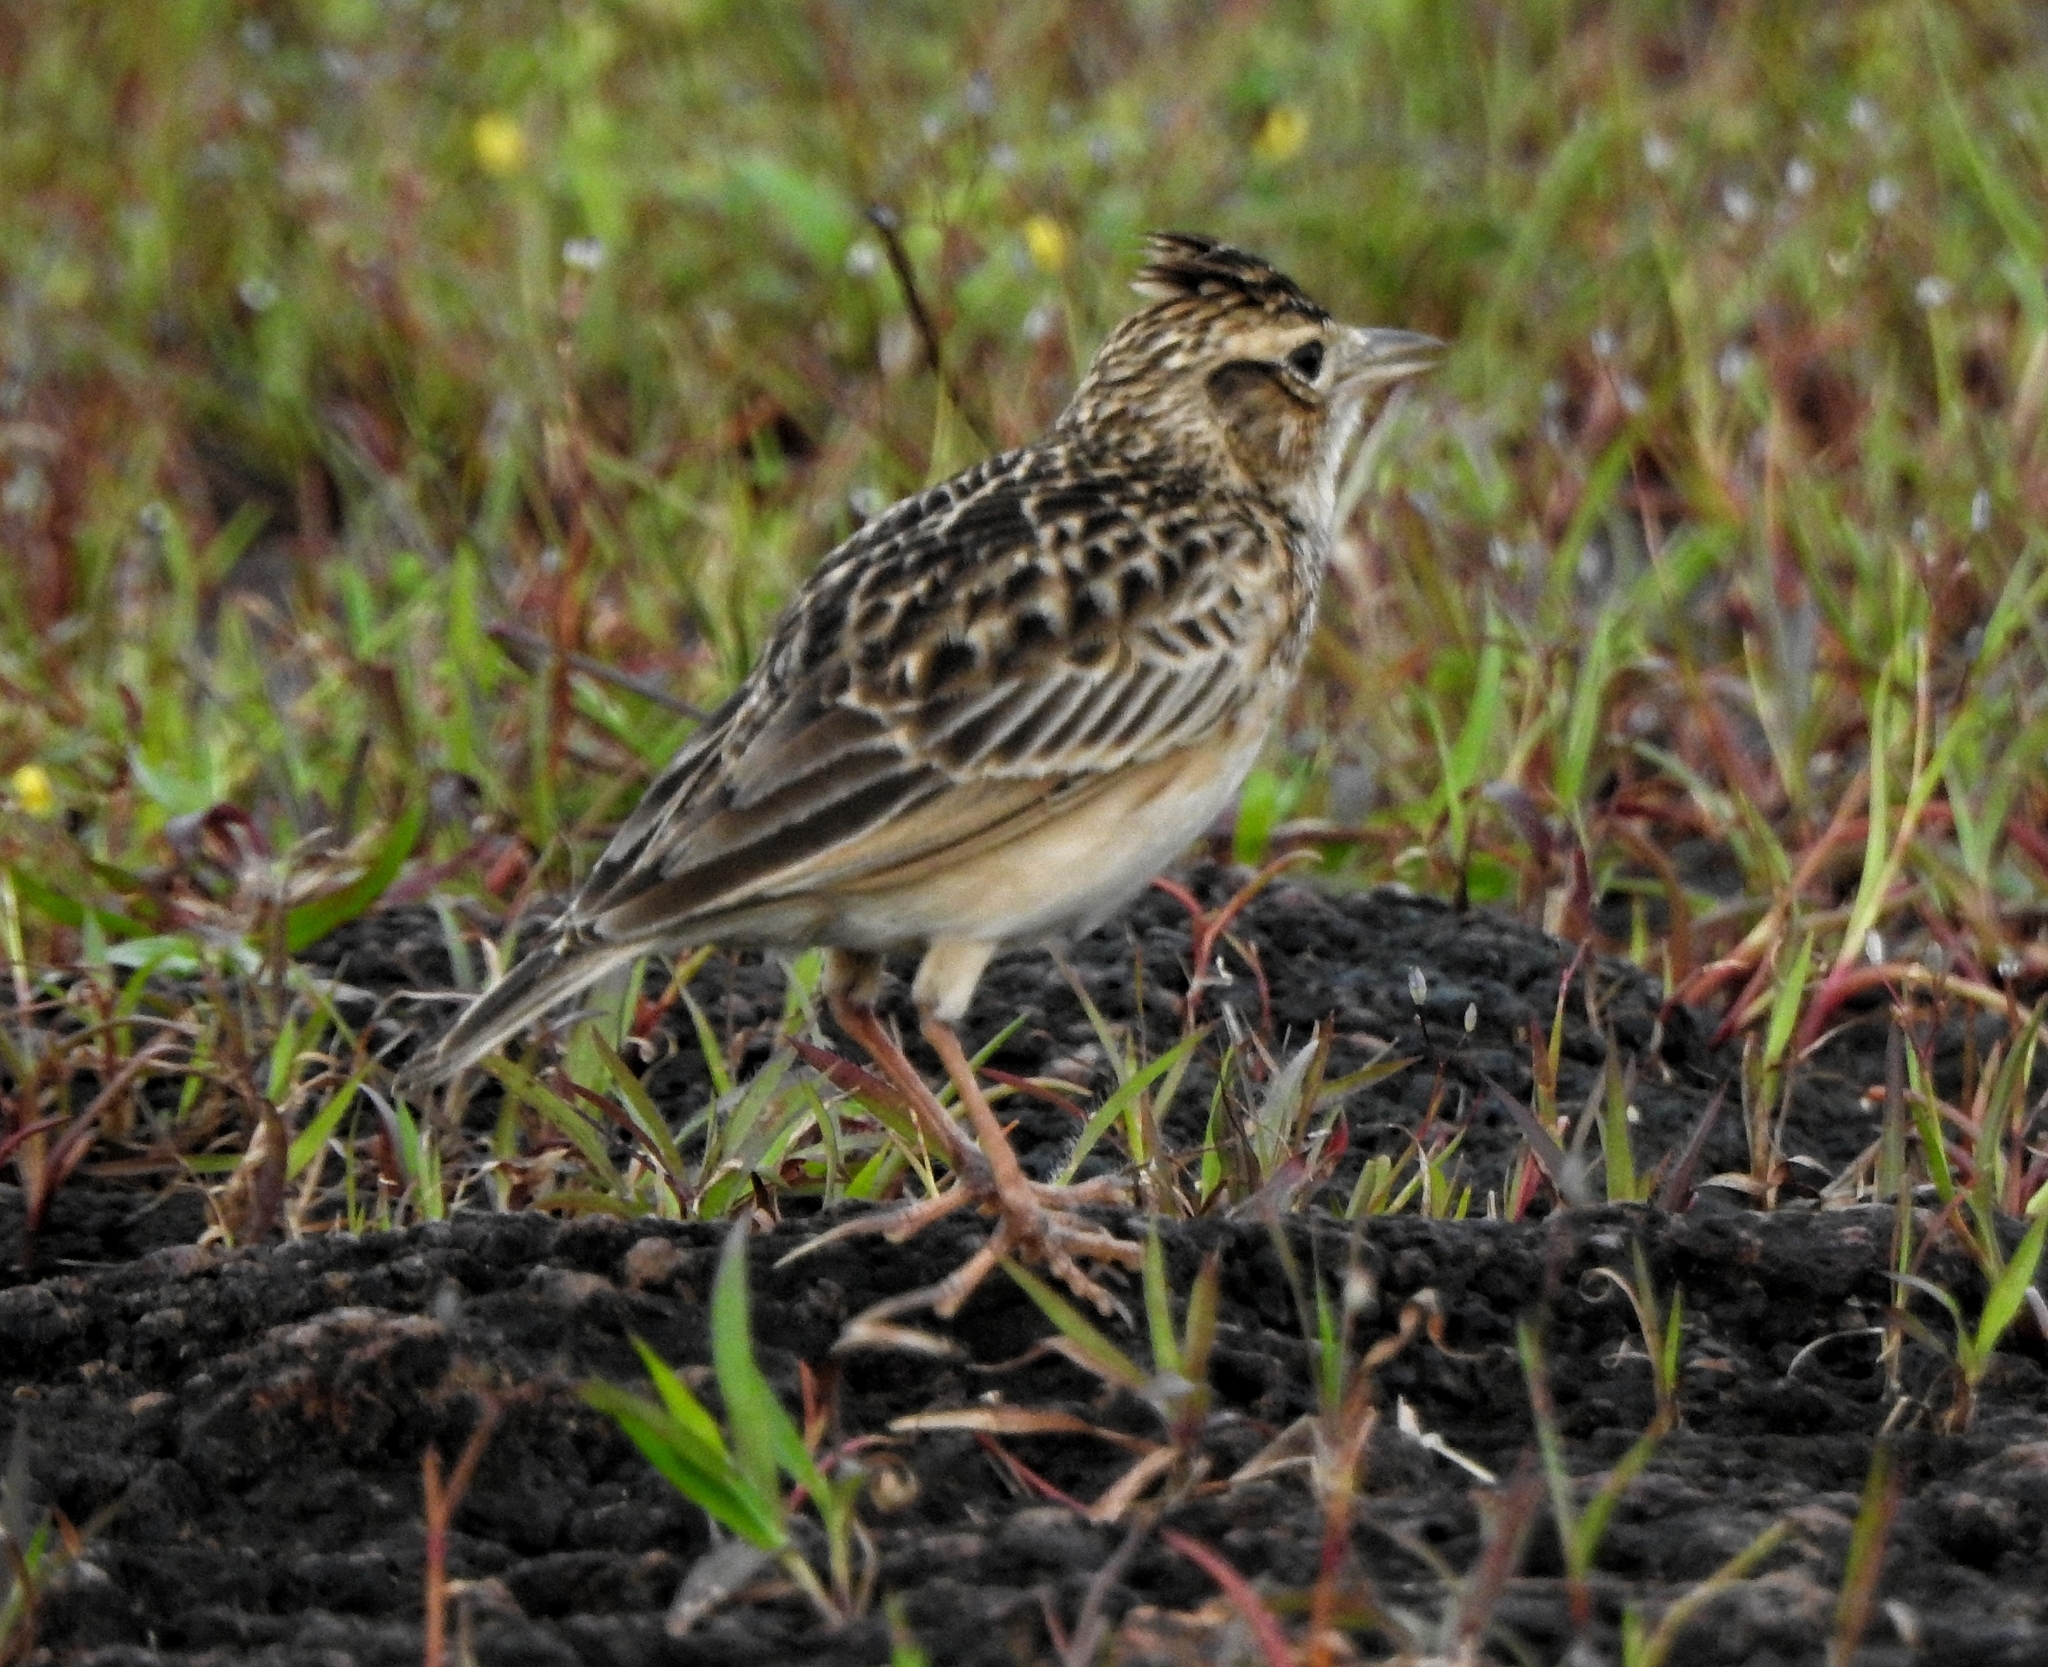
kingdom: Animalia
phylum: Chordata
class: Aves
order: Passeriformes
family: Alaudidae
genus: Alauda
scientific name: Alauda gulgula
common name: Oriental skylark
